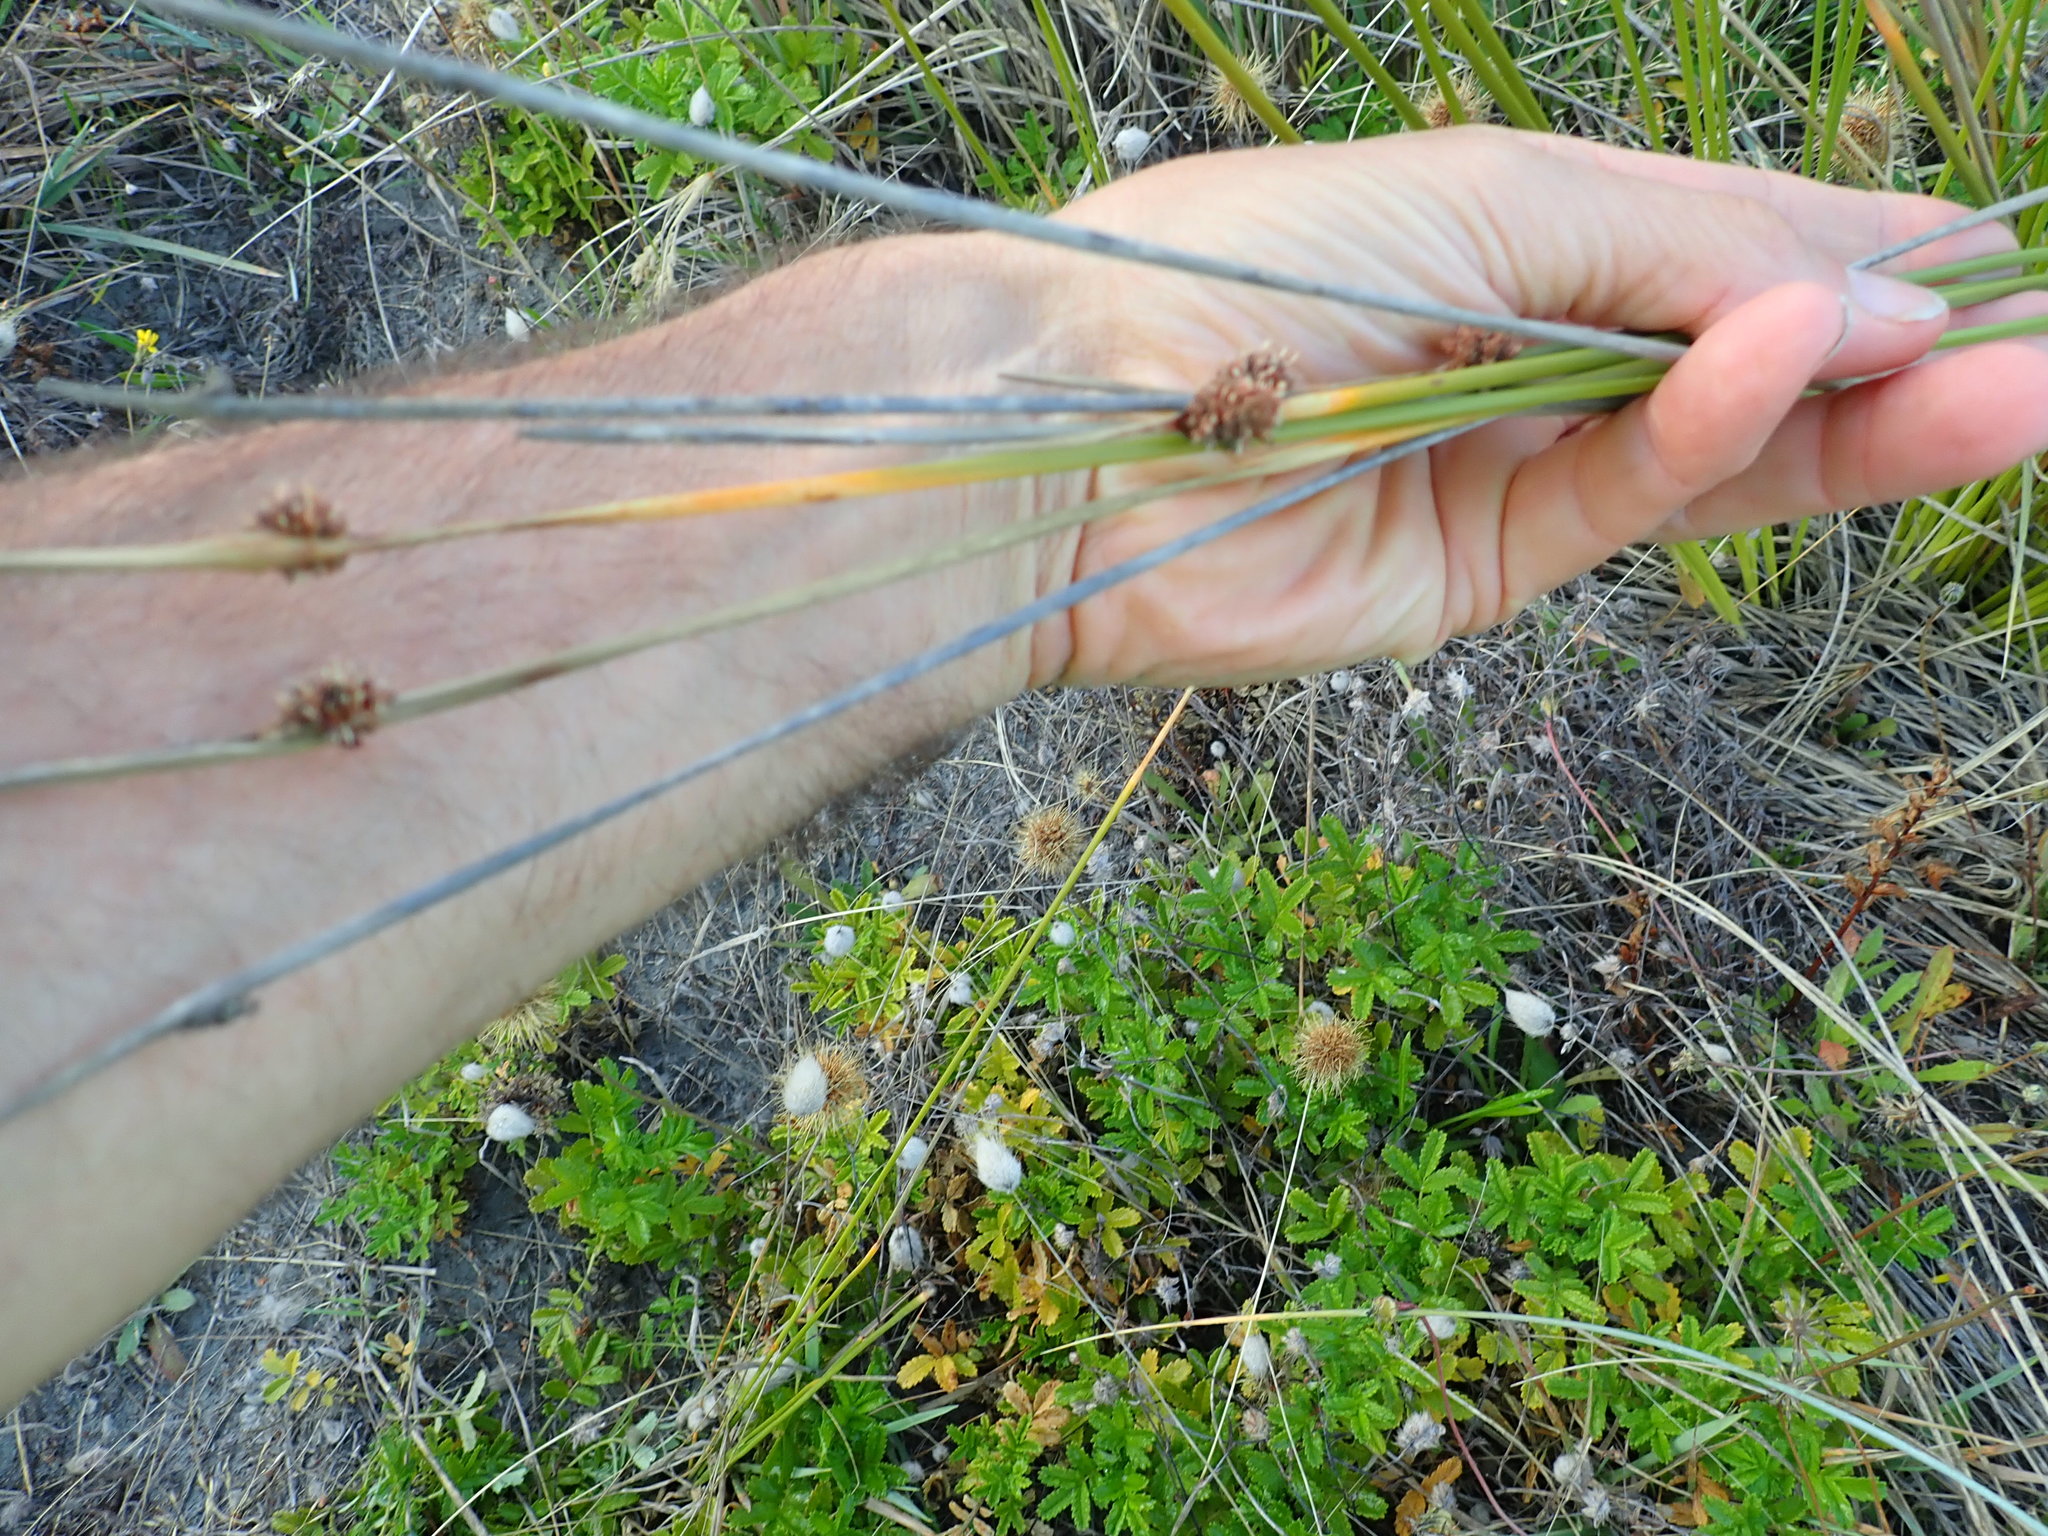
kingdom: Plantae
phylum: Tracheophyta
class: Liliopsida
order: Poales
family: Cyperaceae
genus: Ficinia
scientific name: Ficinia nodosa
